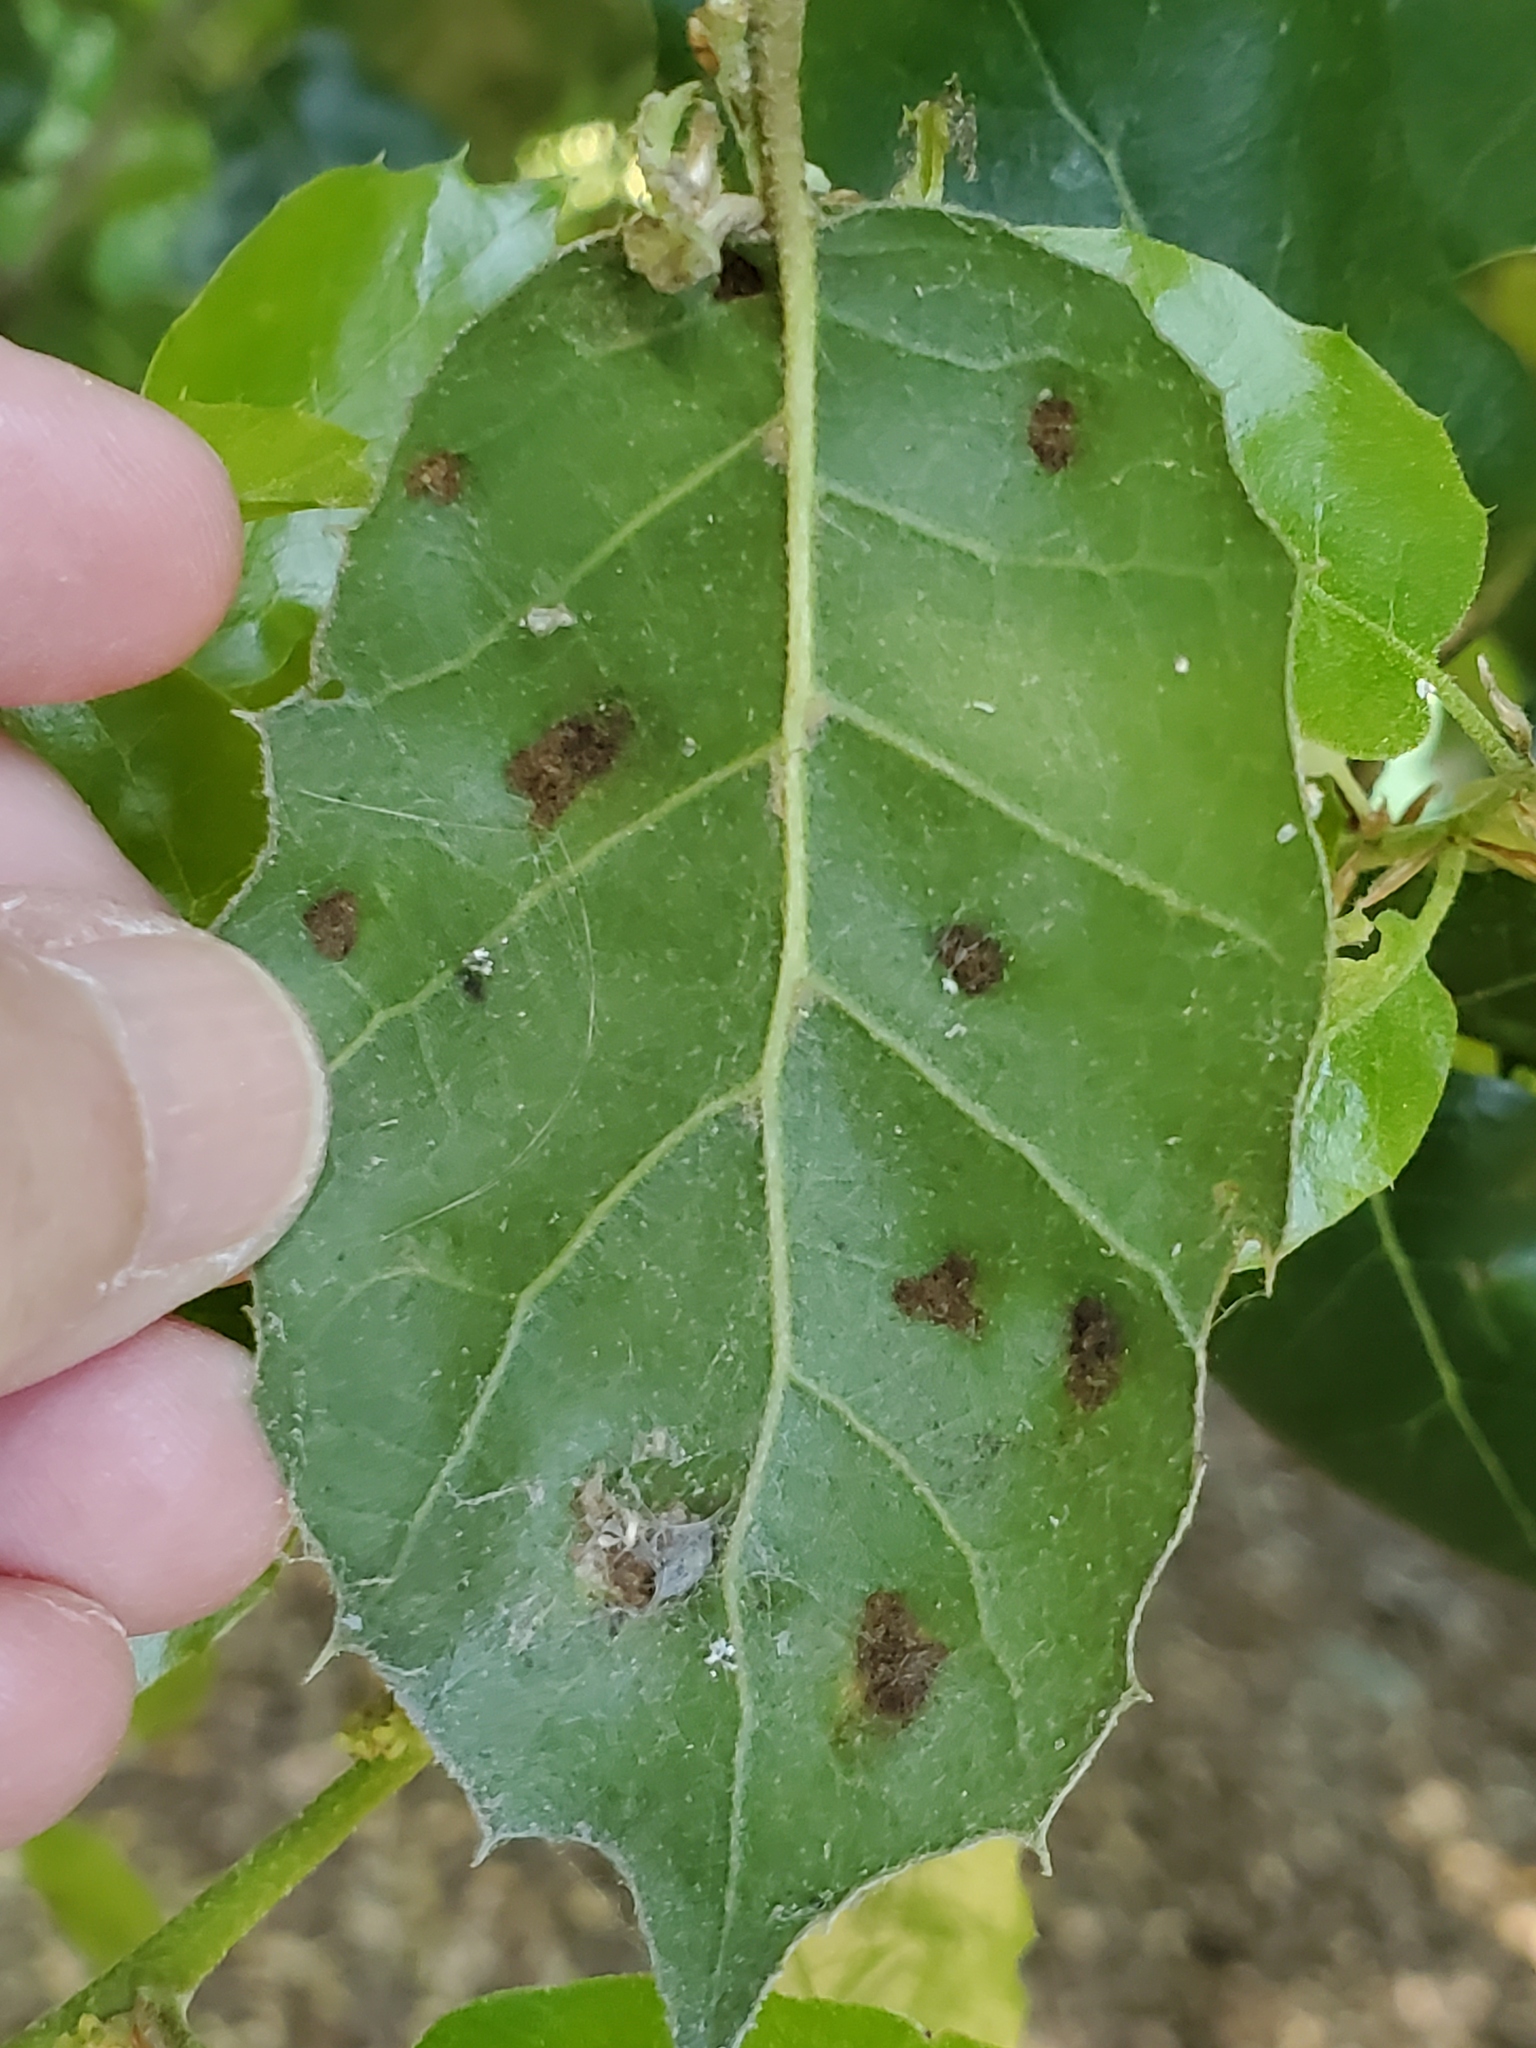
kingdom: Animalia
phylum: Arthropoda
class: Arachnida
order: Trombidiformes
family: Eriophyidae
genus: Aceria
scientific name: Aceria
